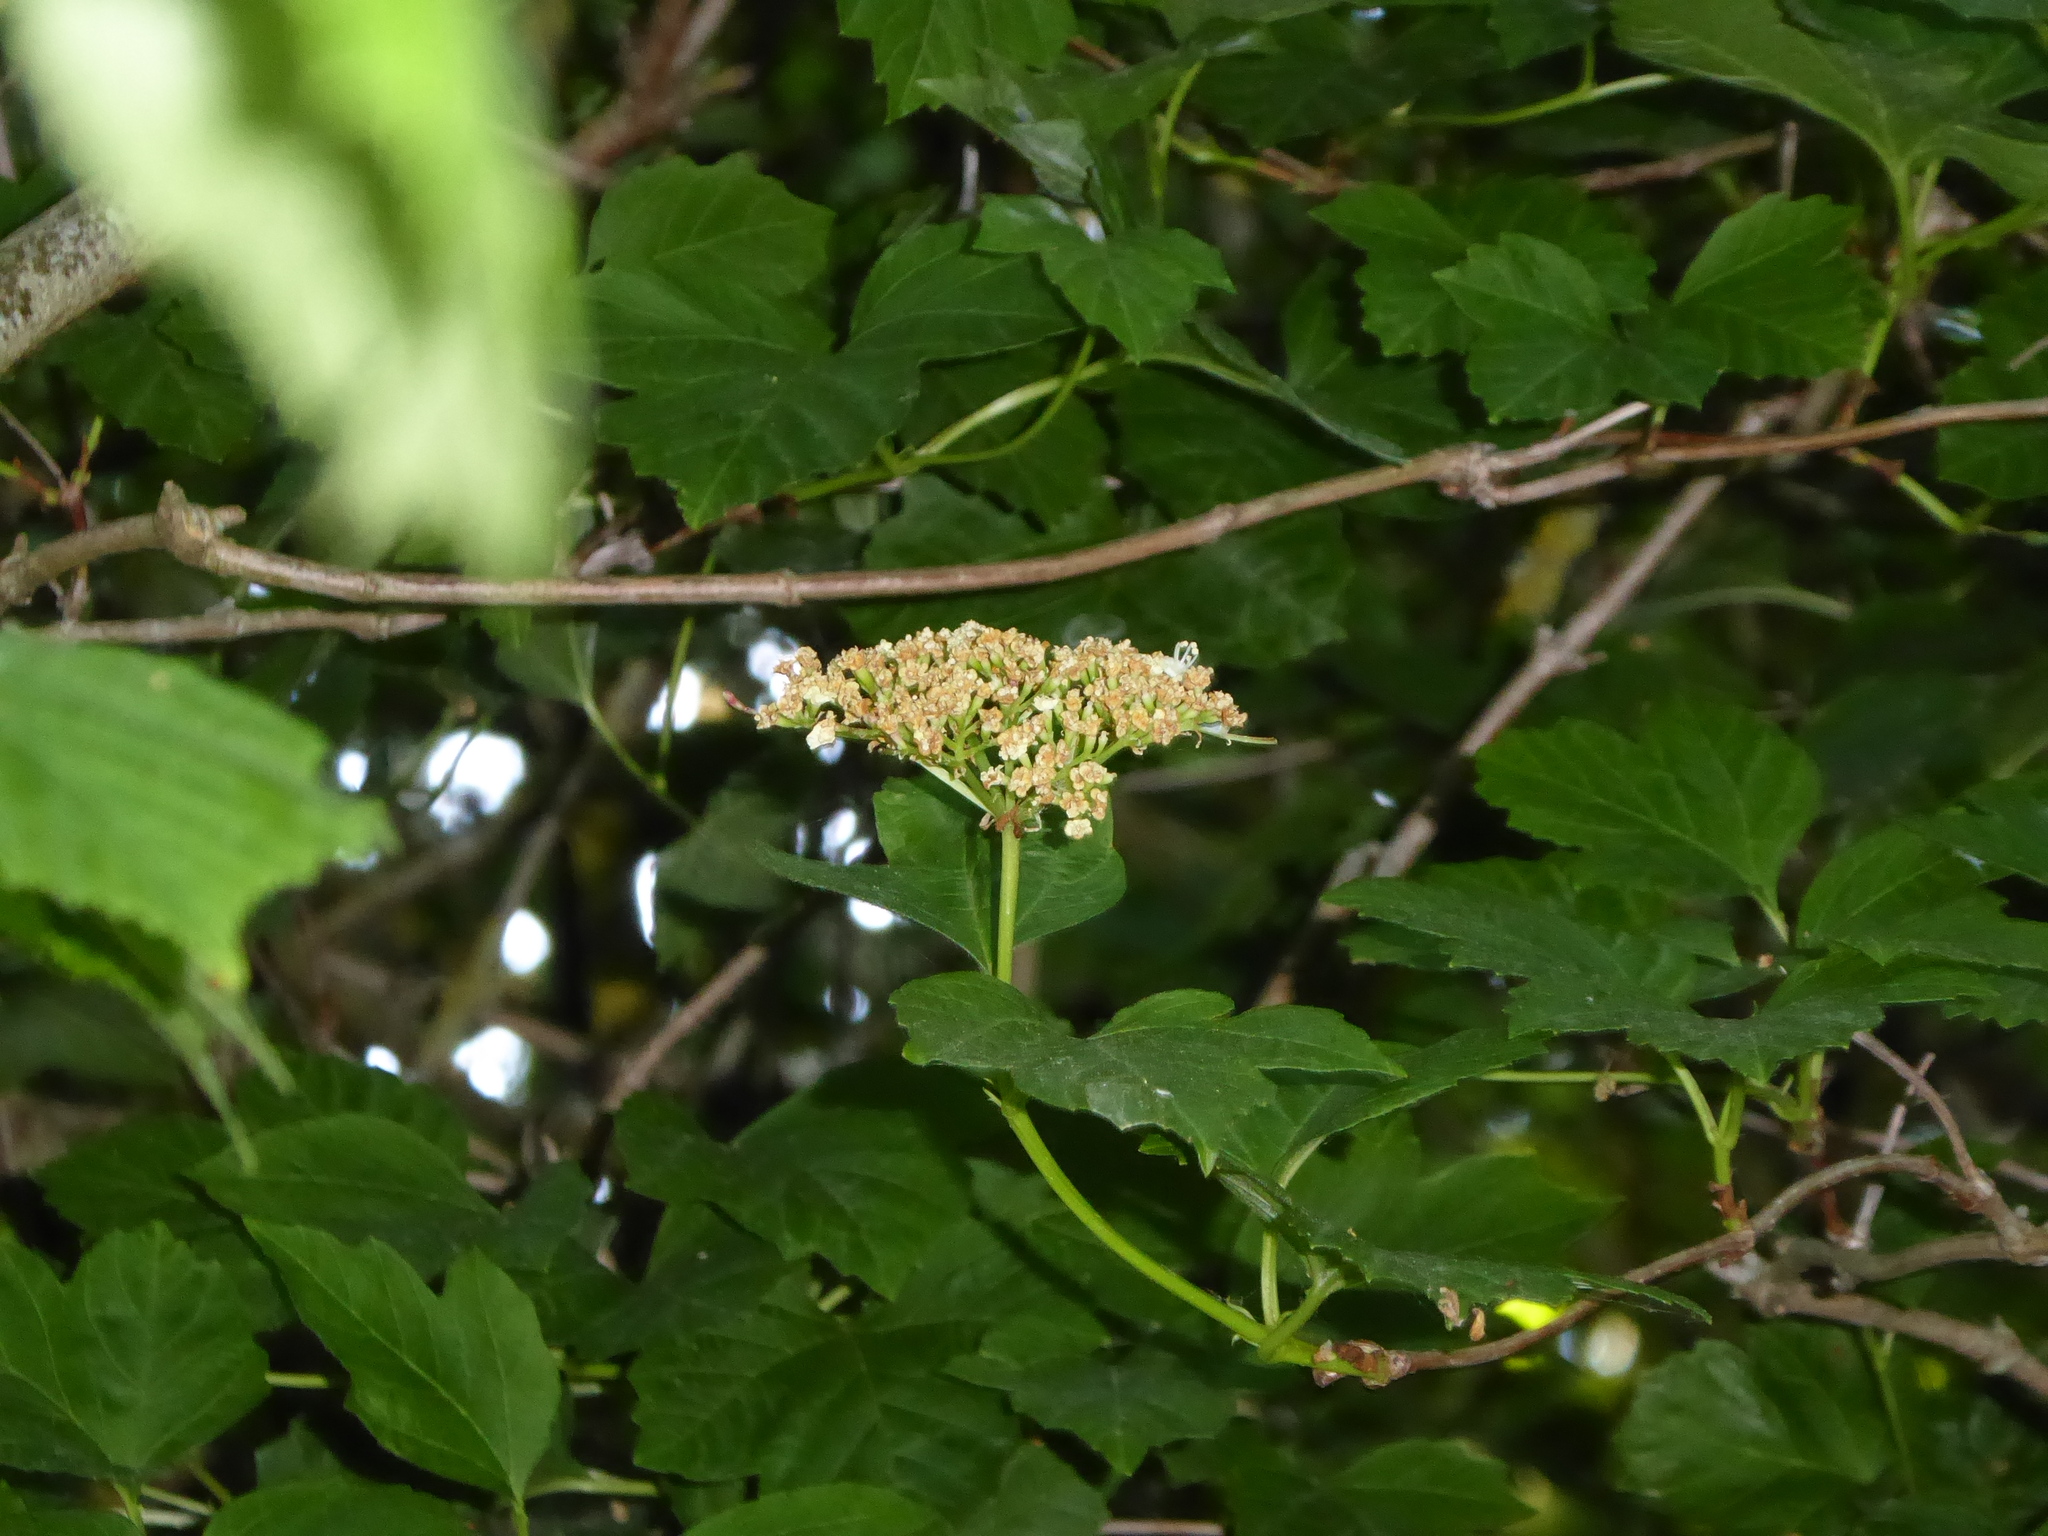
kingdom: Plantae
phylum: Tracheophyta
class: Magnoliopsida
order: Dipsacales
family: Viburnaceae
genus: Viburnum
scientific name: Viburnum opulus
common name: Guelder-rose
